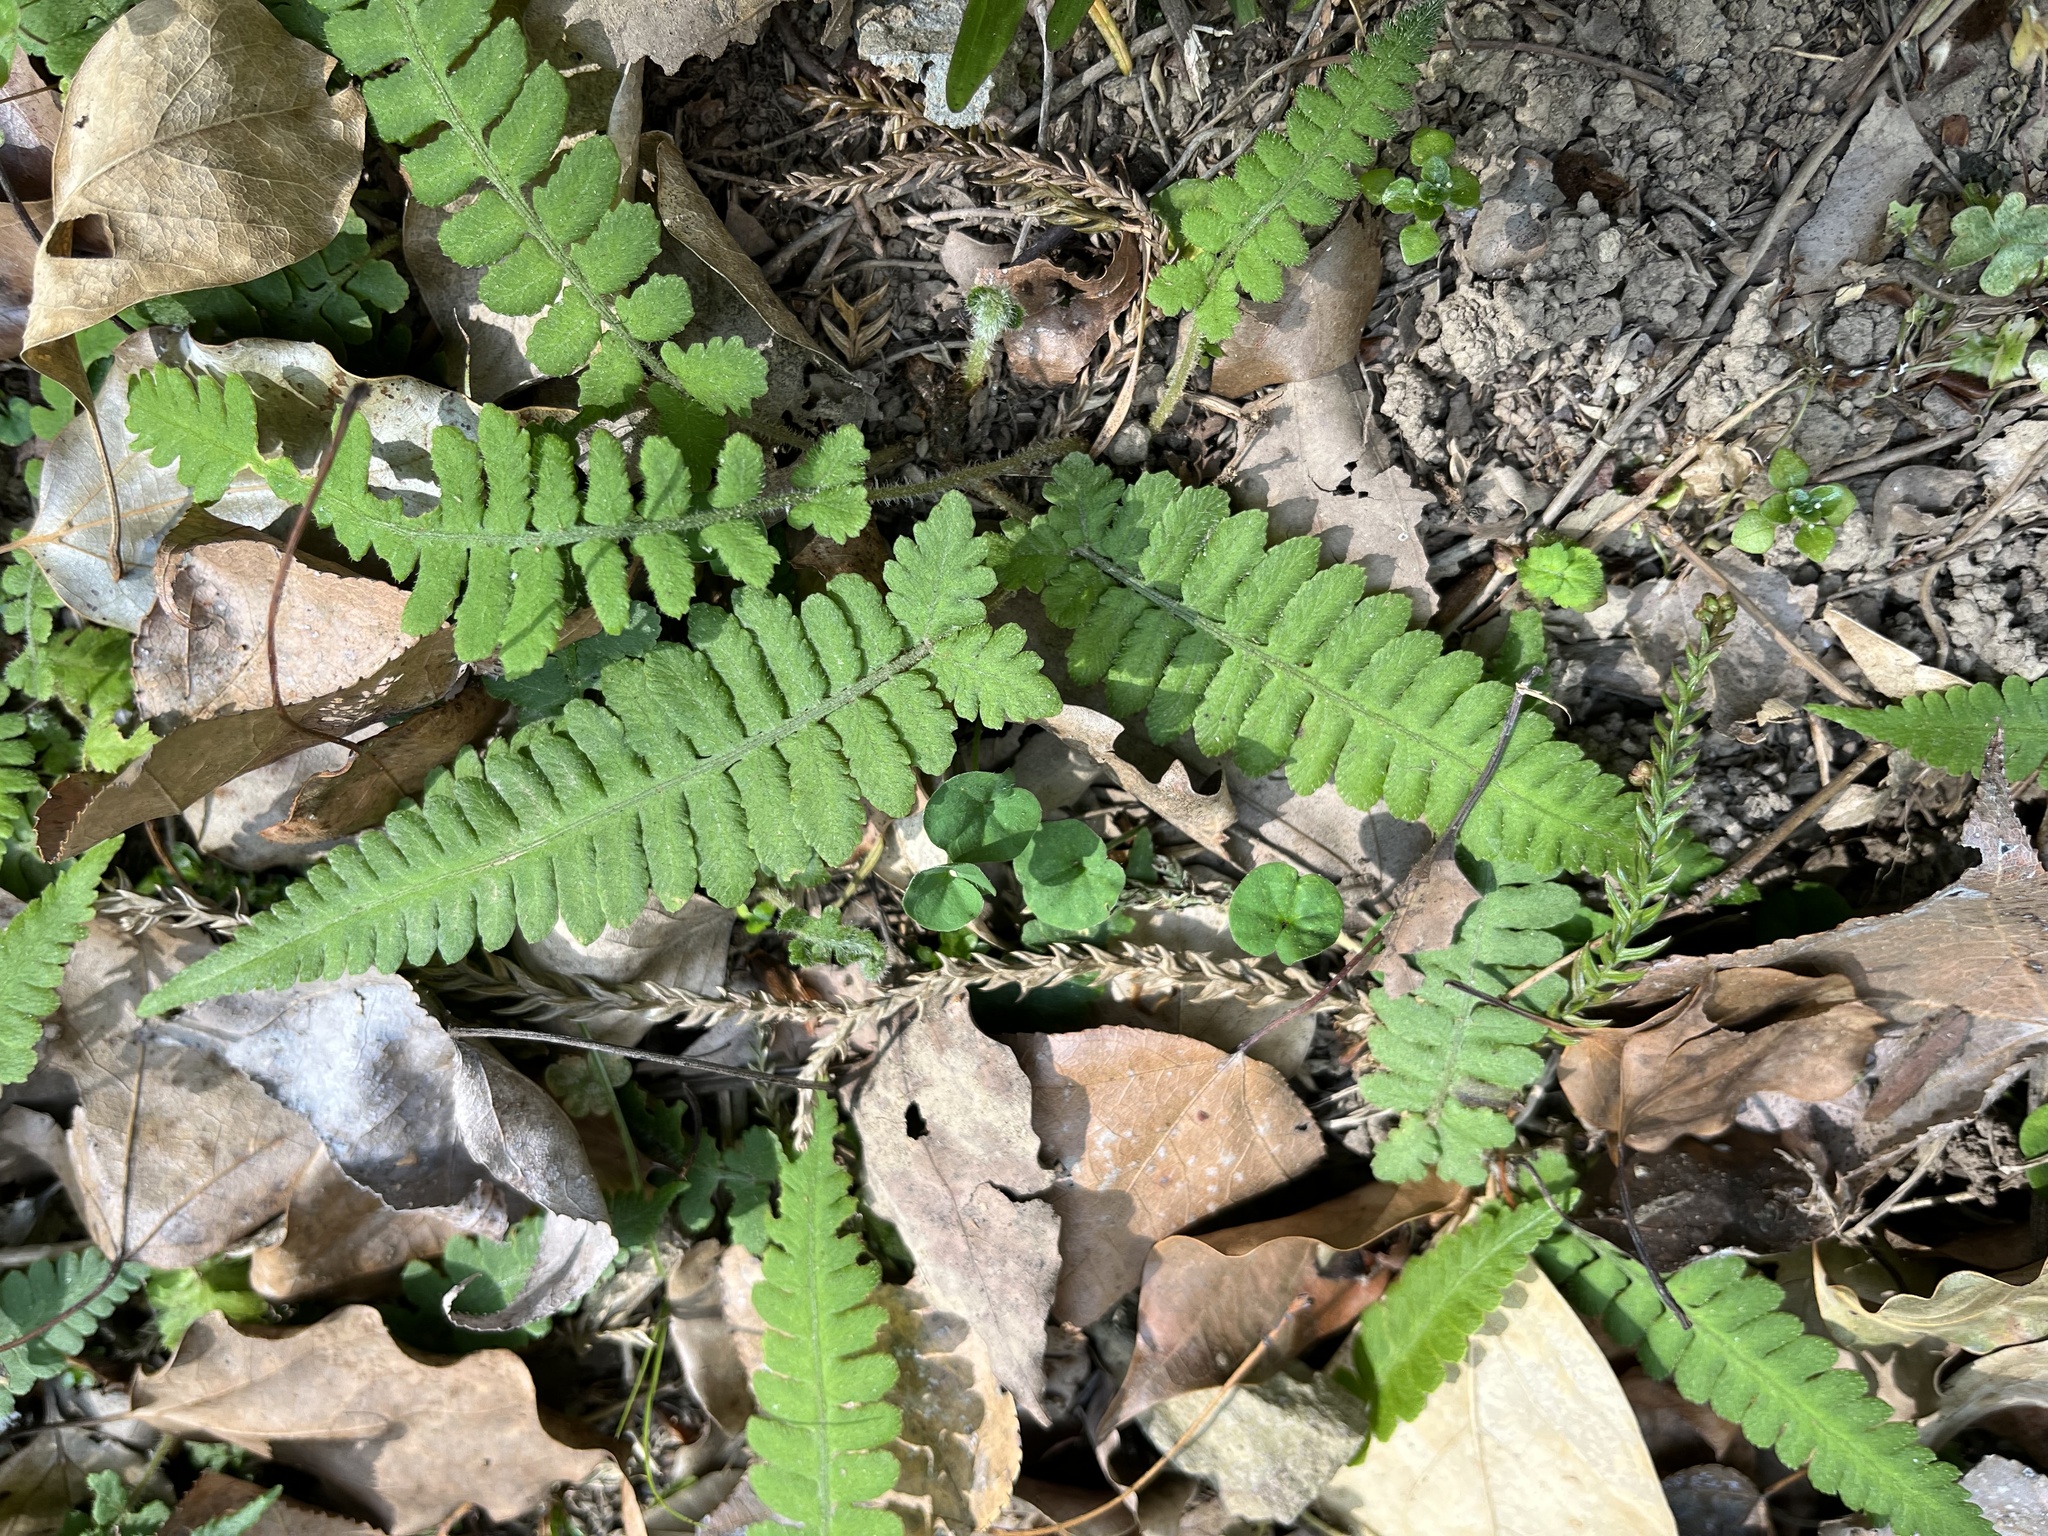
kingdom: Plantae
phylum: Tracheophyta
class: Polypodiopsida
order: Polypodiales
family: Athyriaceae
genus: Deparia
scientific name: Deparia petersenii
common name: Japanese false spleenwort
